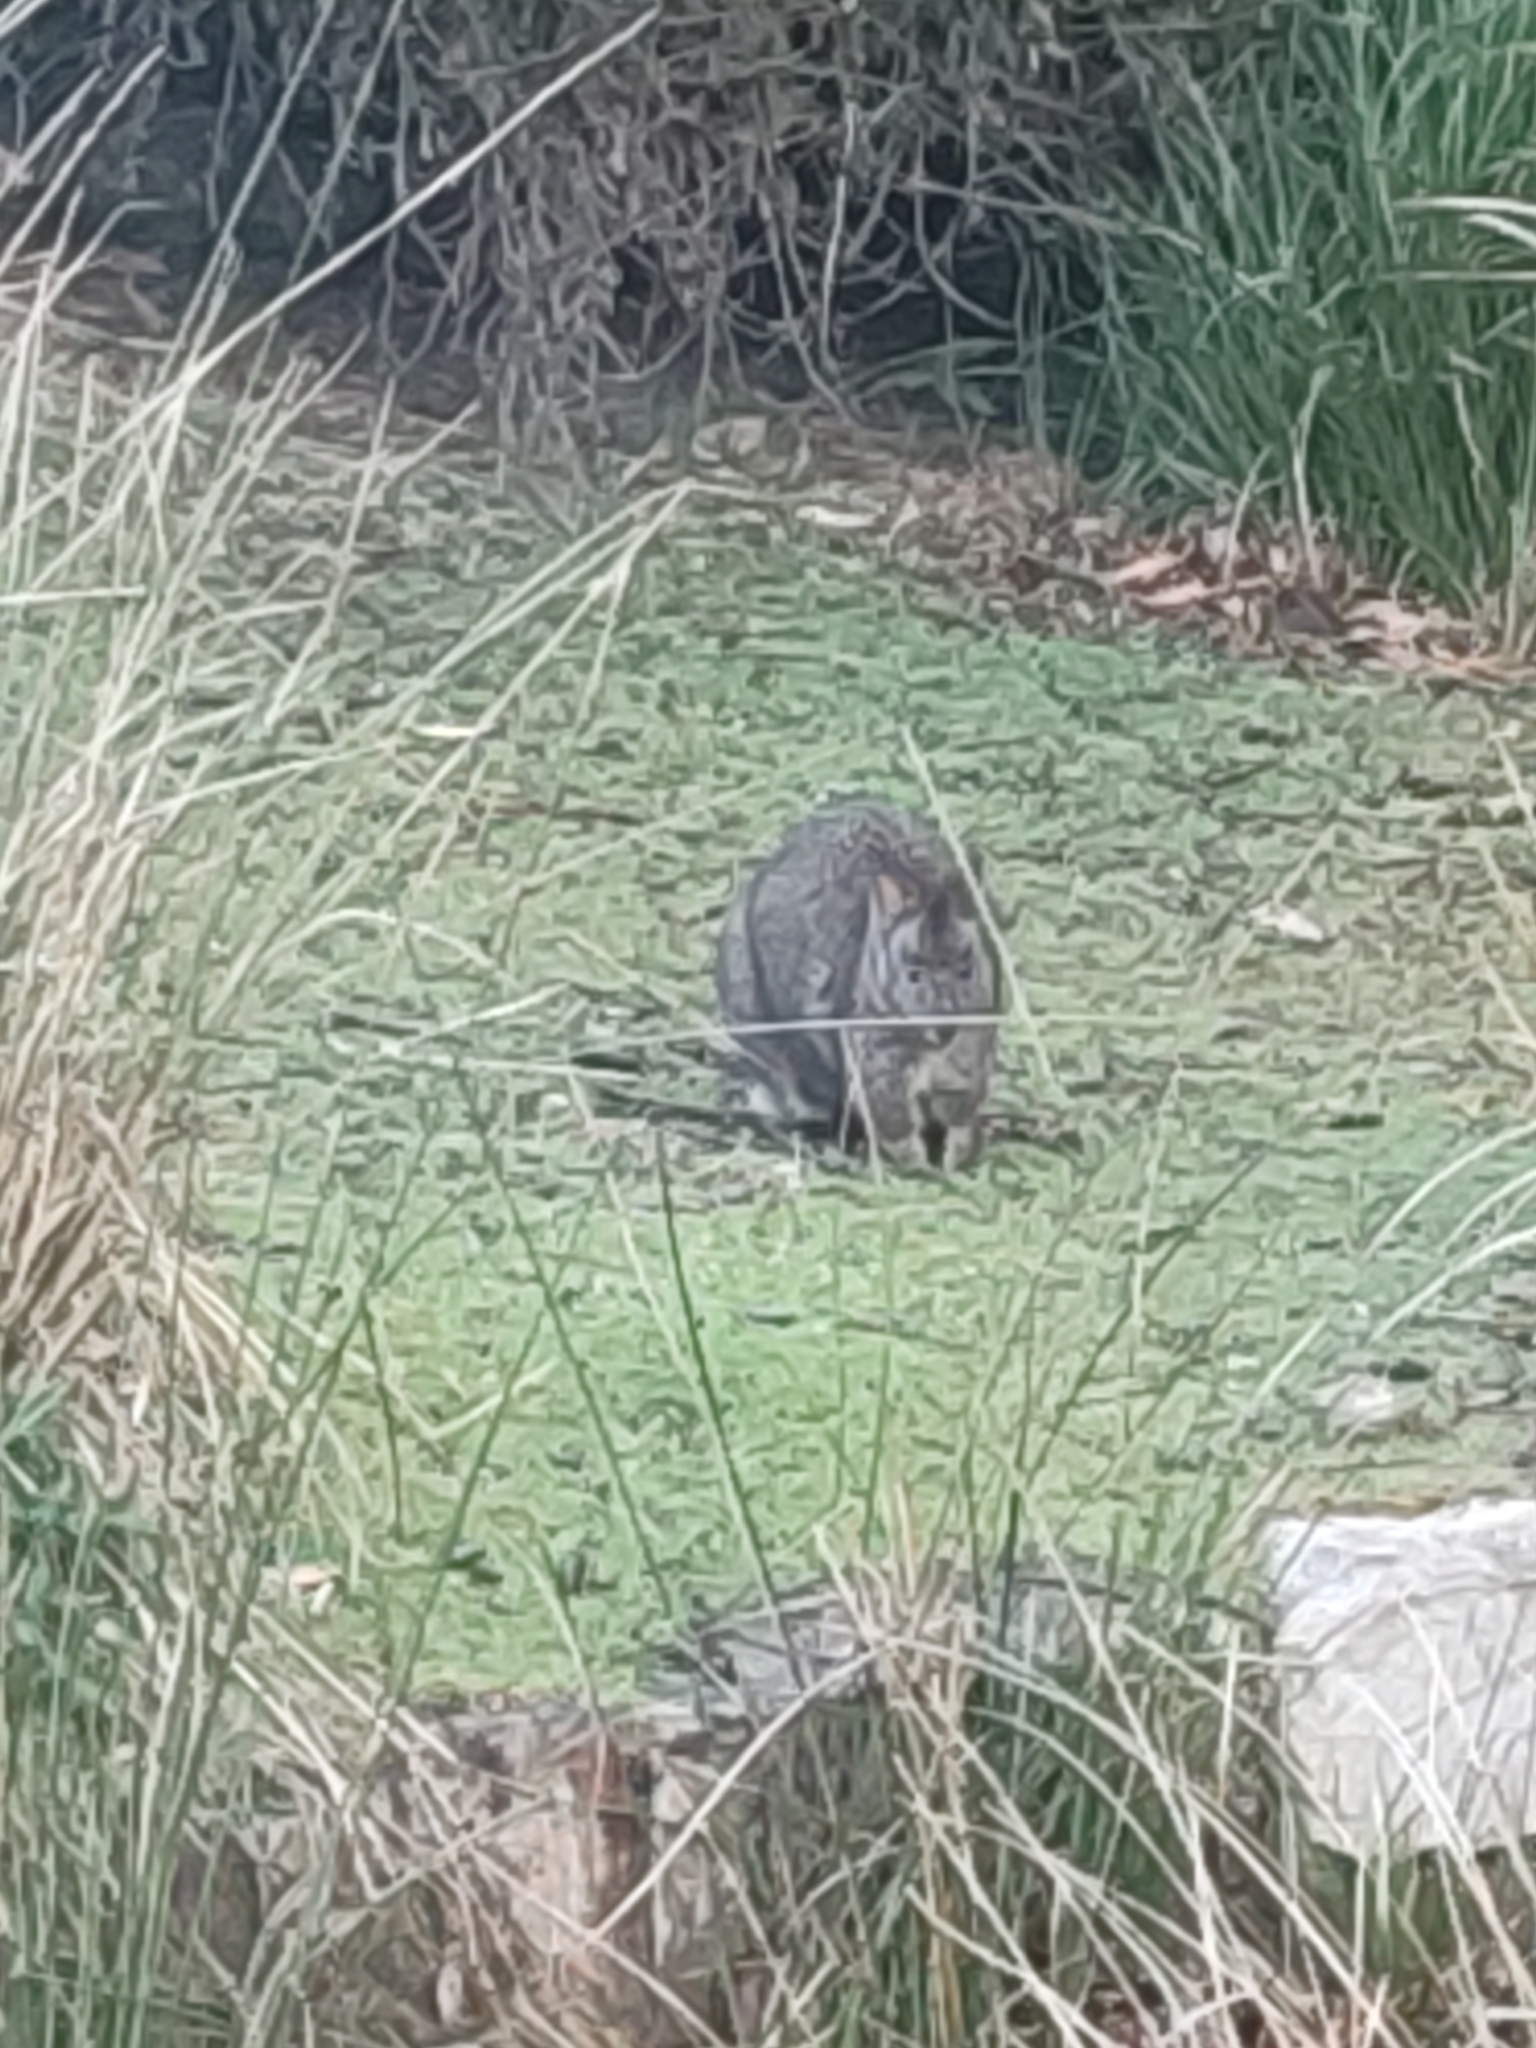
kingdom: Animalia
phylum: Chordata
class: Mammalia
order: Diprotodontia
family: Macropodidae
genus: Thylogale
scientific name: Thylogale billardierii
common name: Tasmanian pademelon
